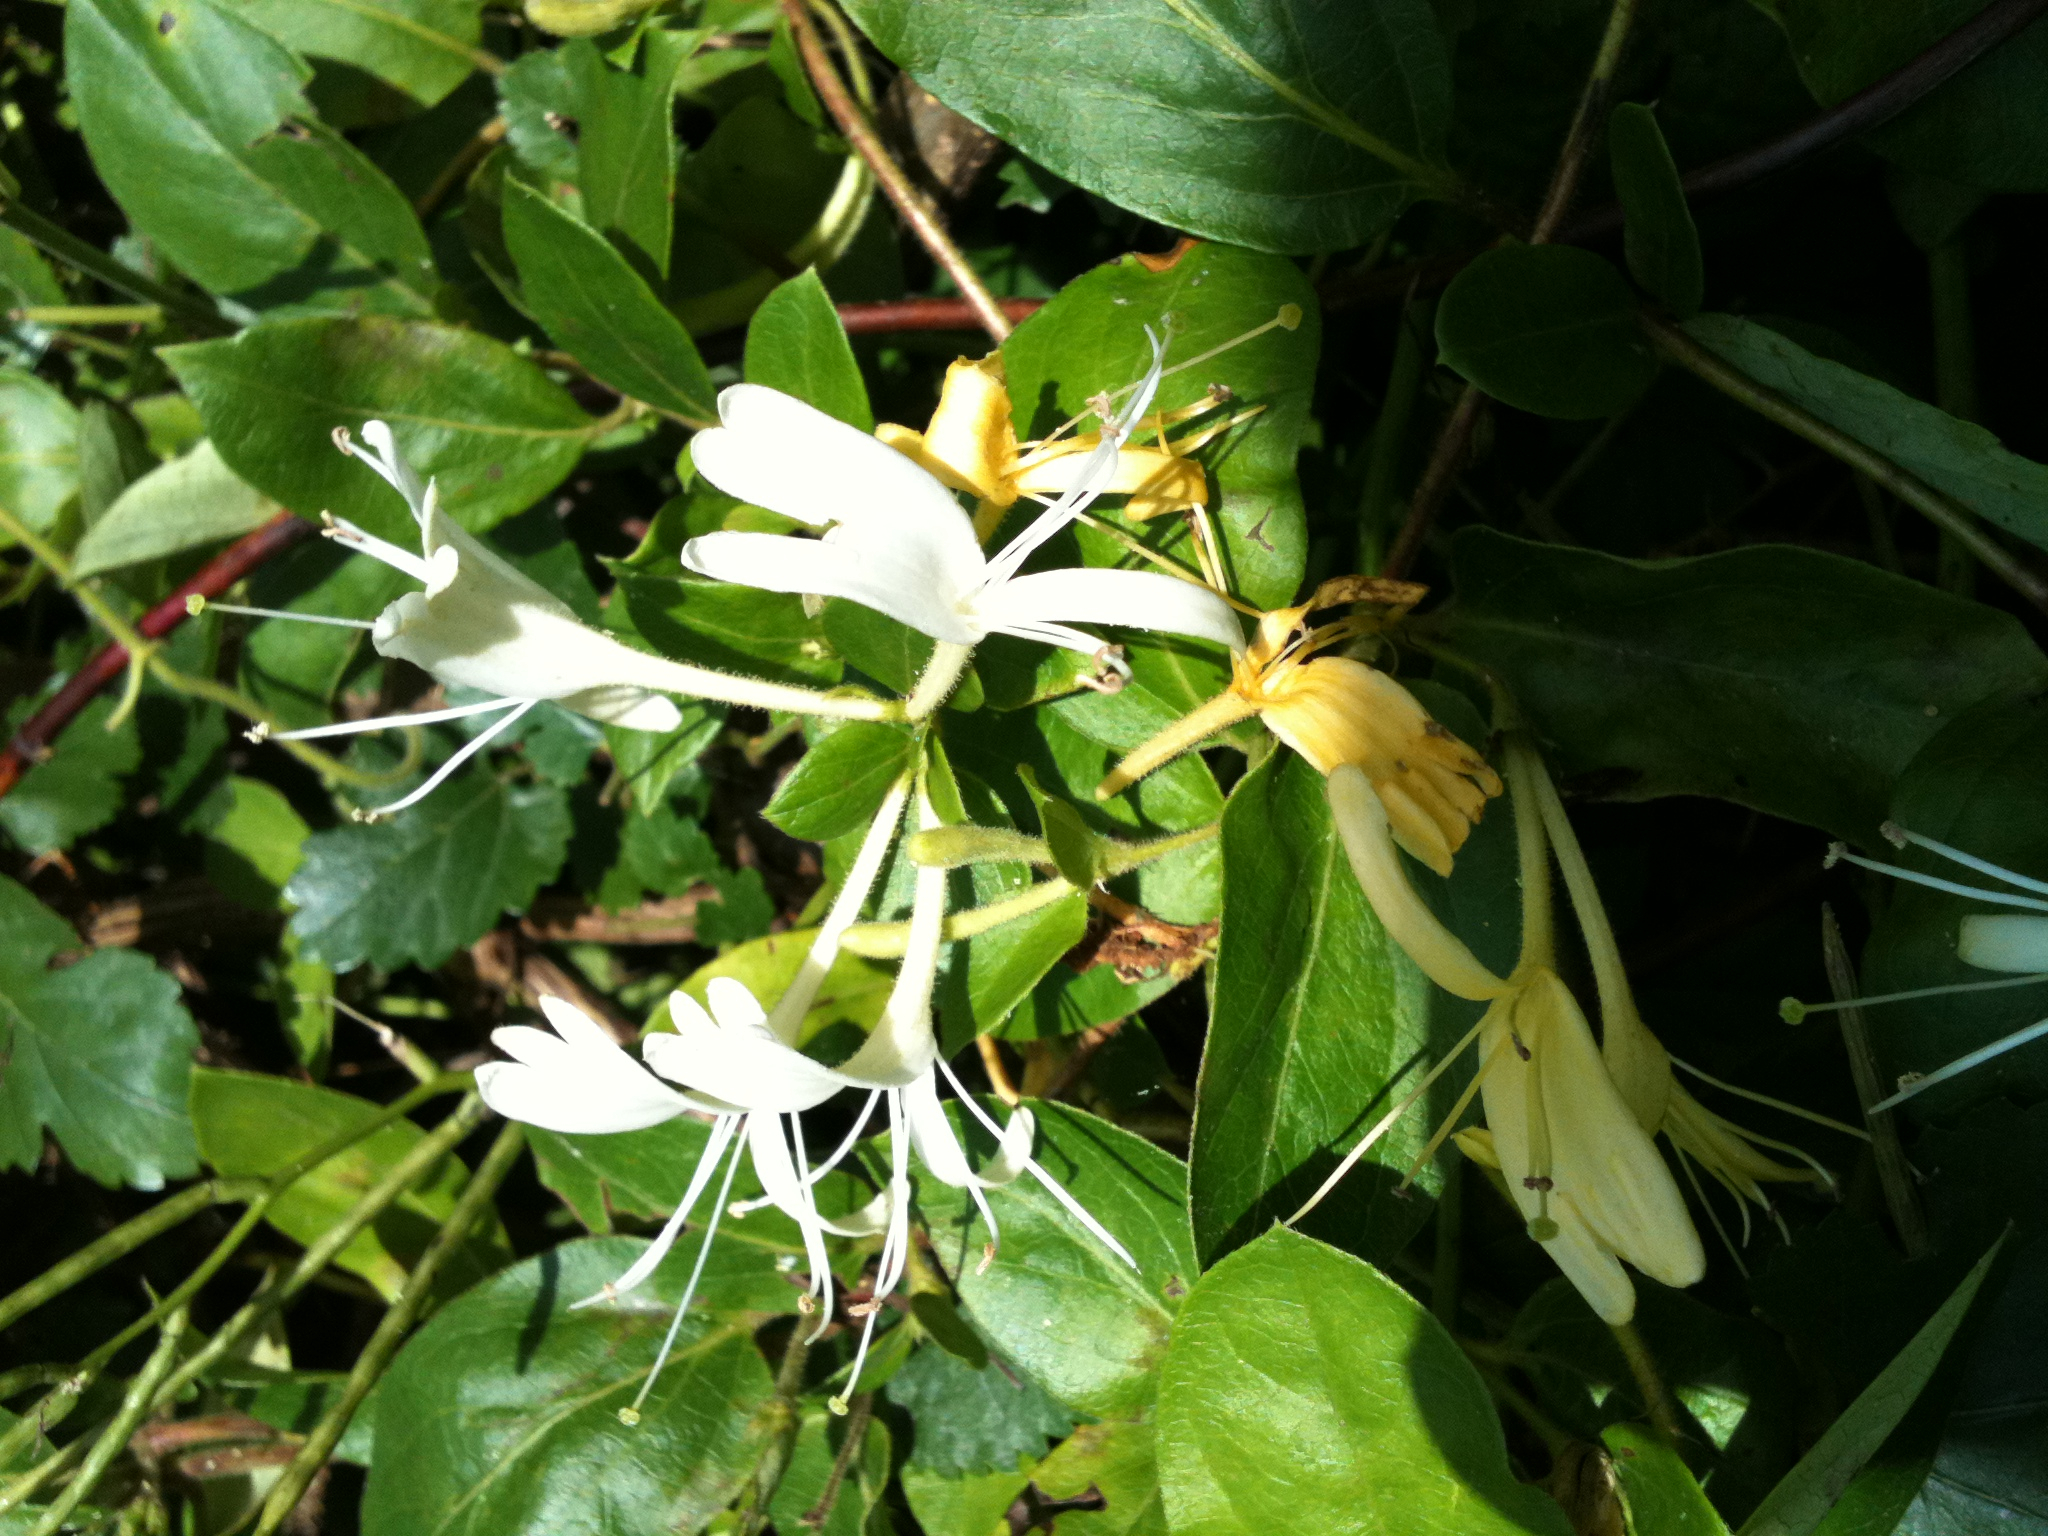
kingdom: Plantae
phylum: Tracheophyta
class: Magnoliopsida
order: Dipsacales
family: Caprifoliaceae
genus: Lonicera
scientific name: Lonicera japonica
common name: Japanese honeysuckle
